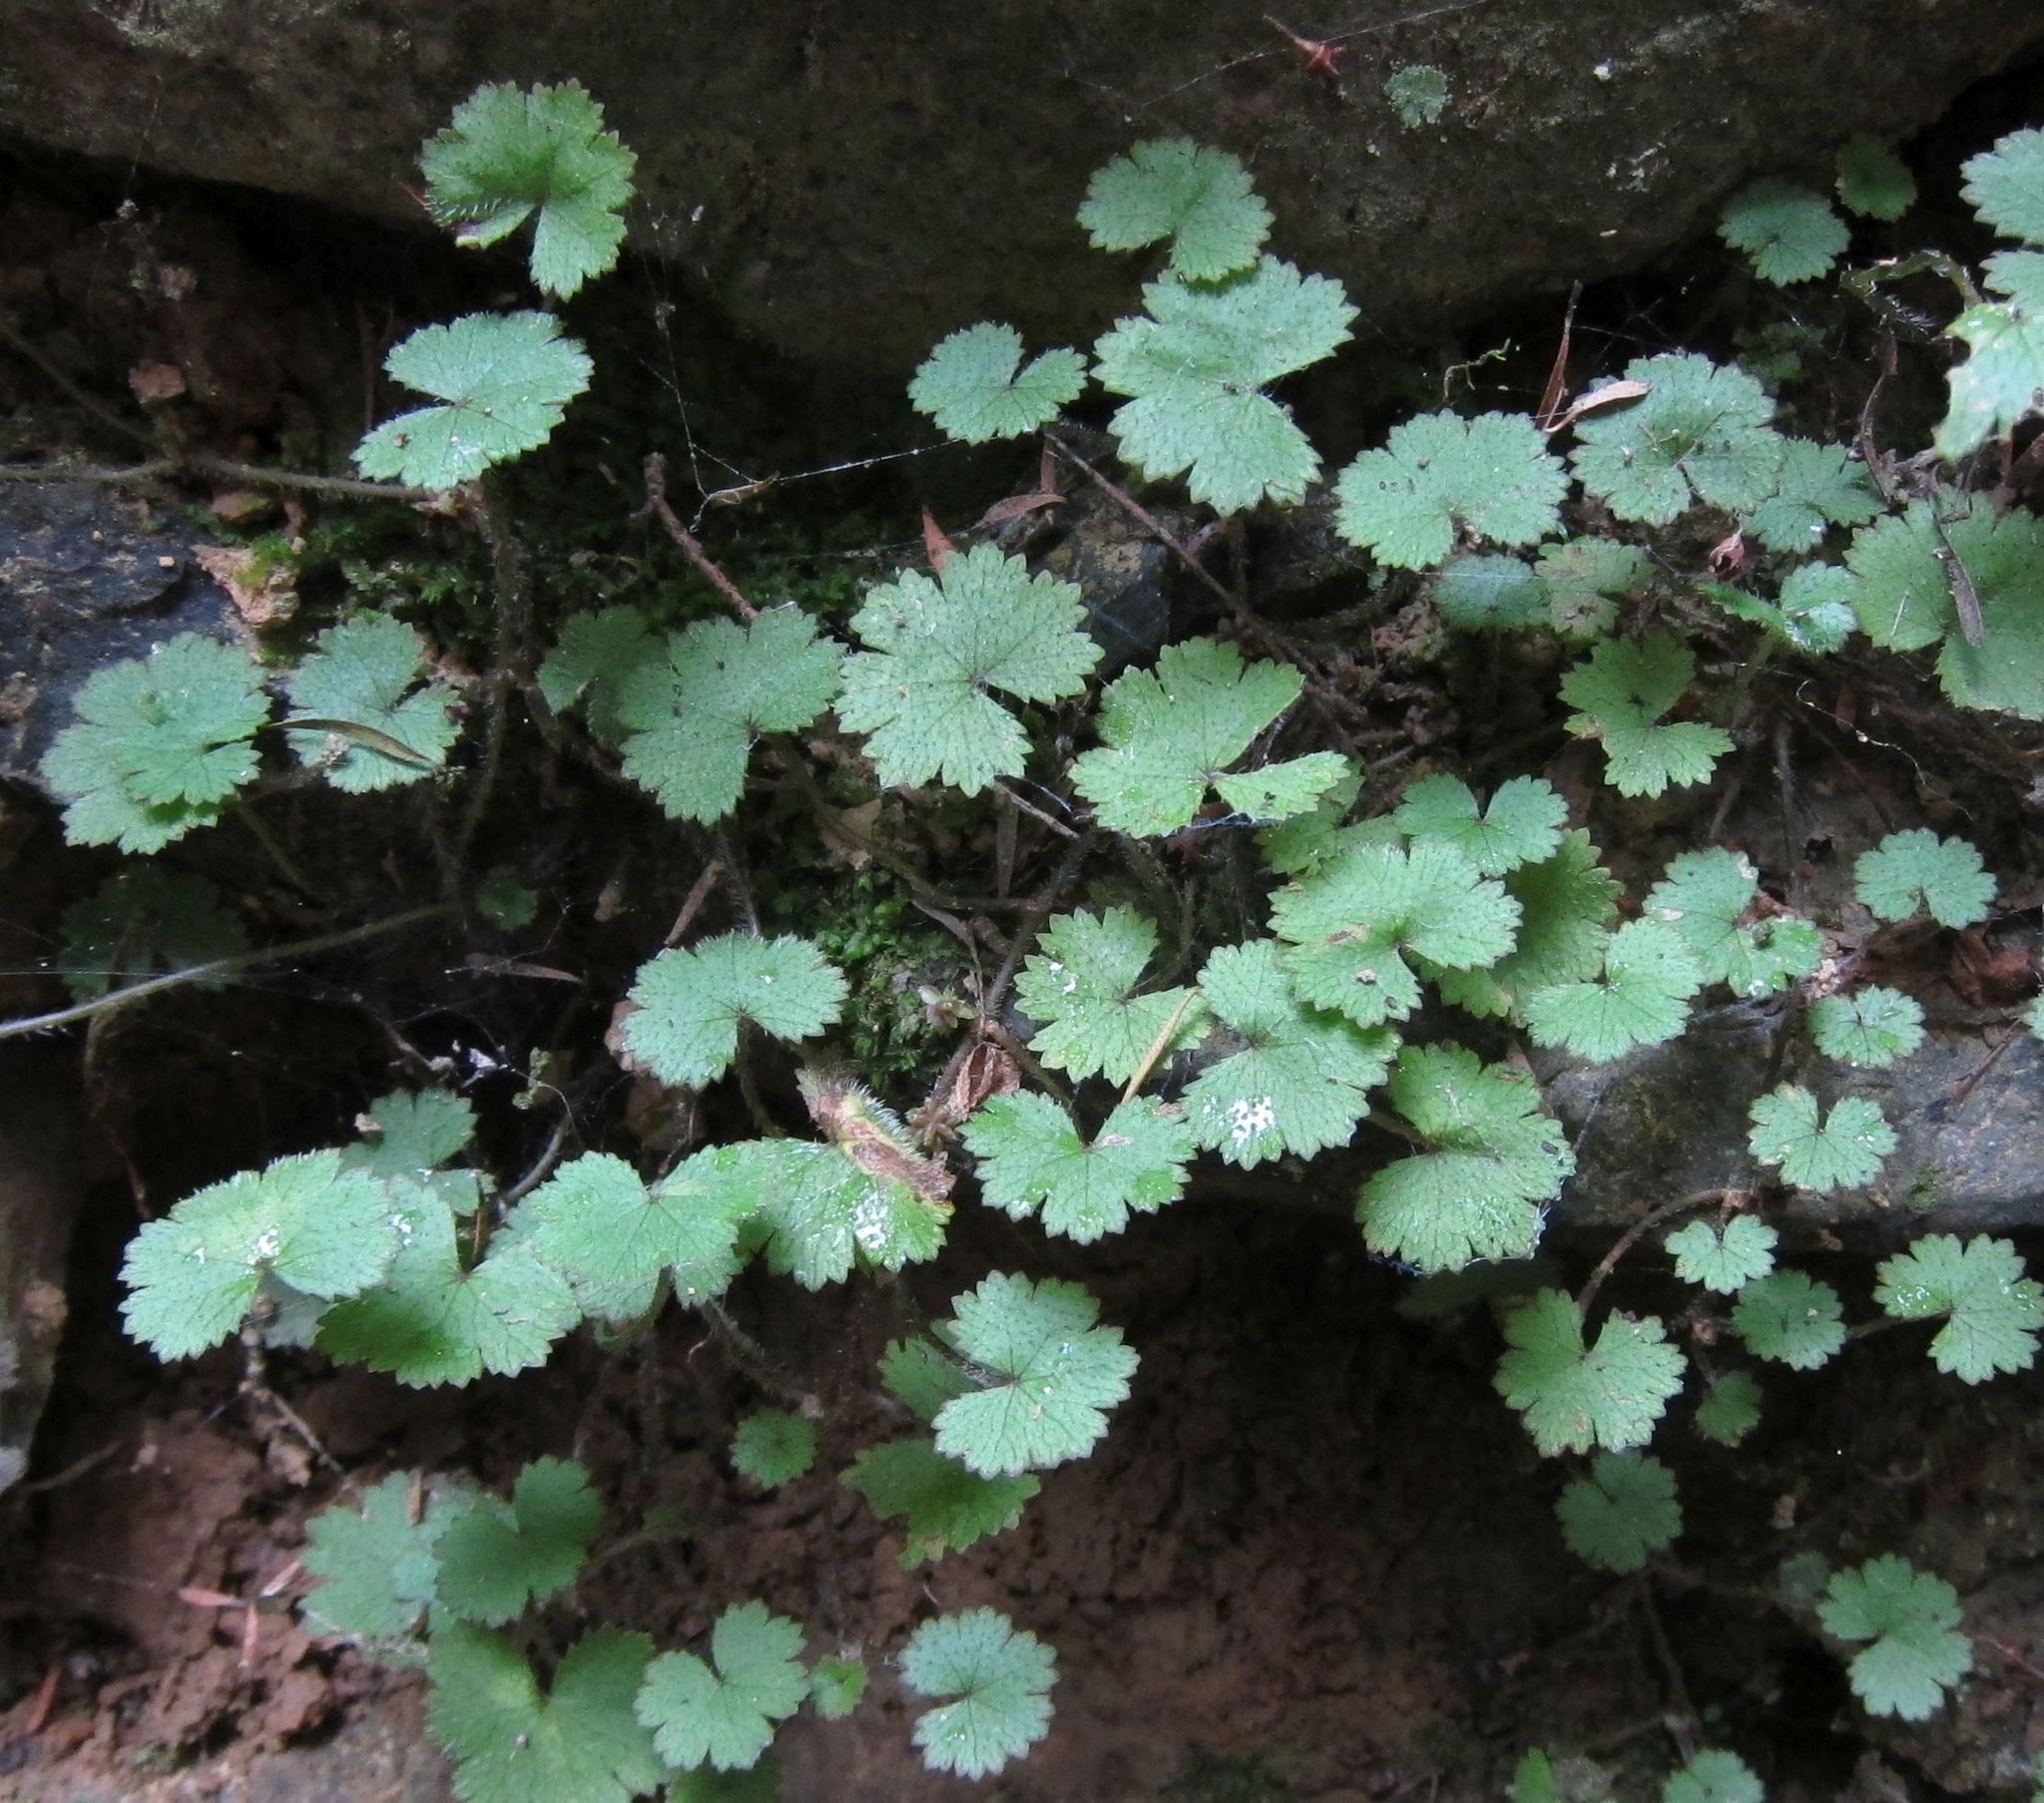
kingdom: Plantae
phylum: Tracheophyta
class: Magnoliopsida
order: Apiales
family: Araliaceae
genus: Hydrocotyle
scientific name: Hydrocotyle moschata
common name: Hairy pennywort
